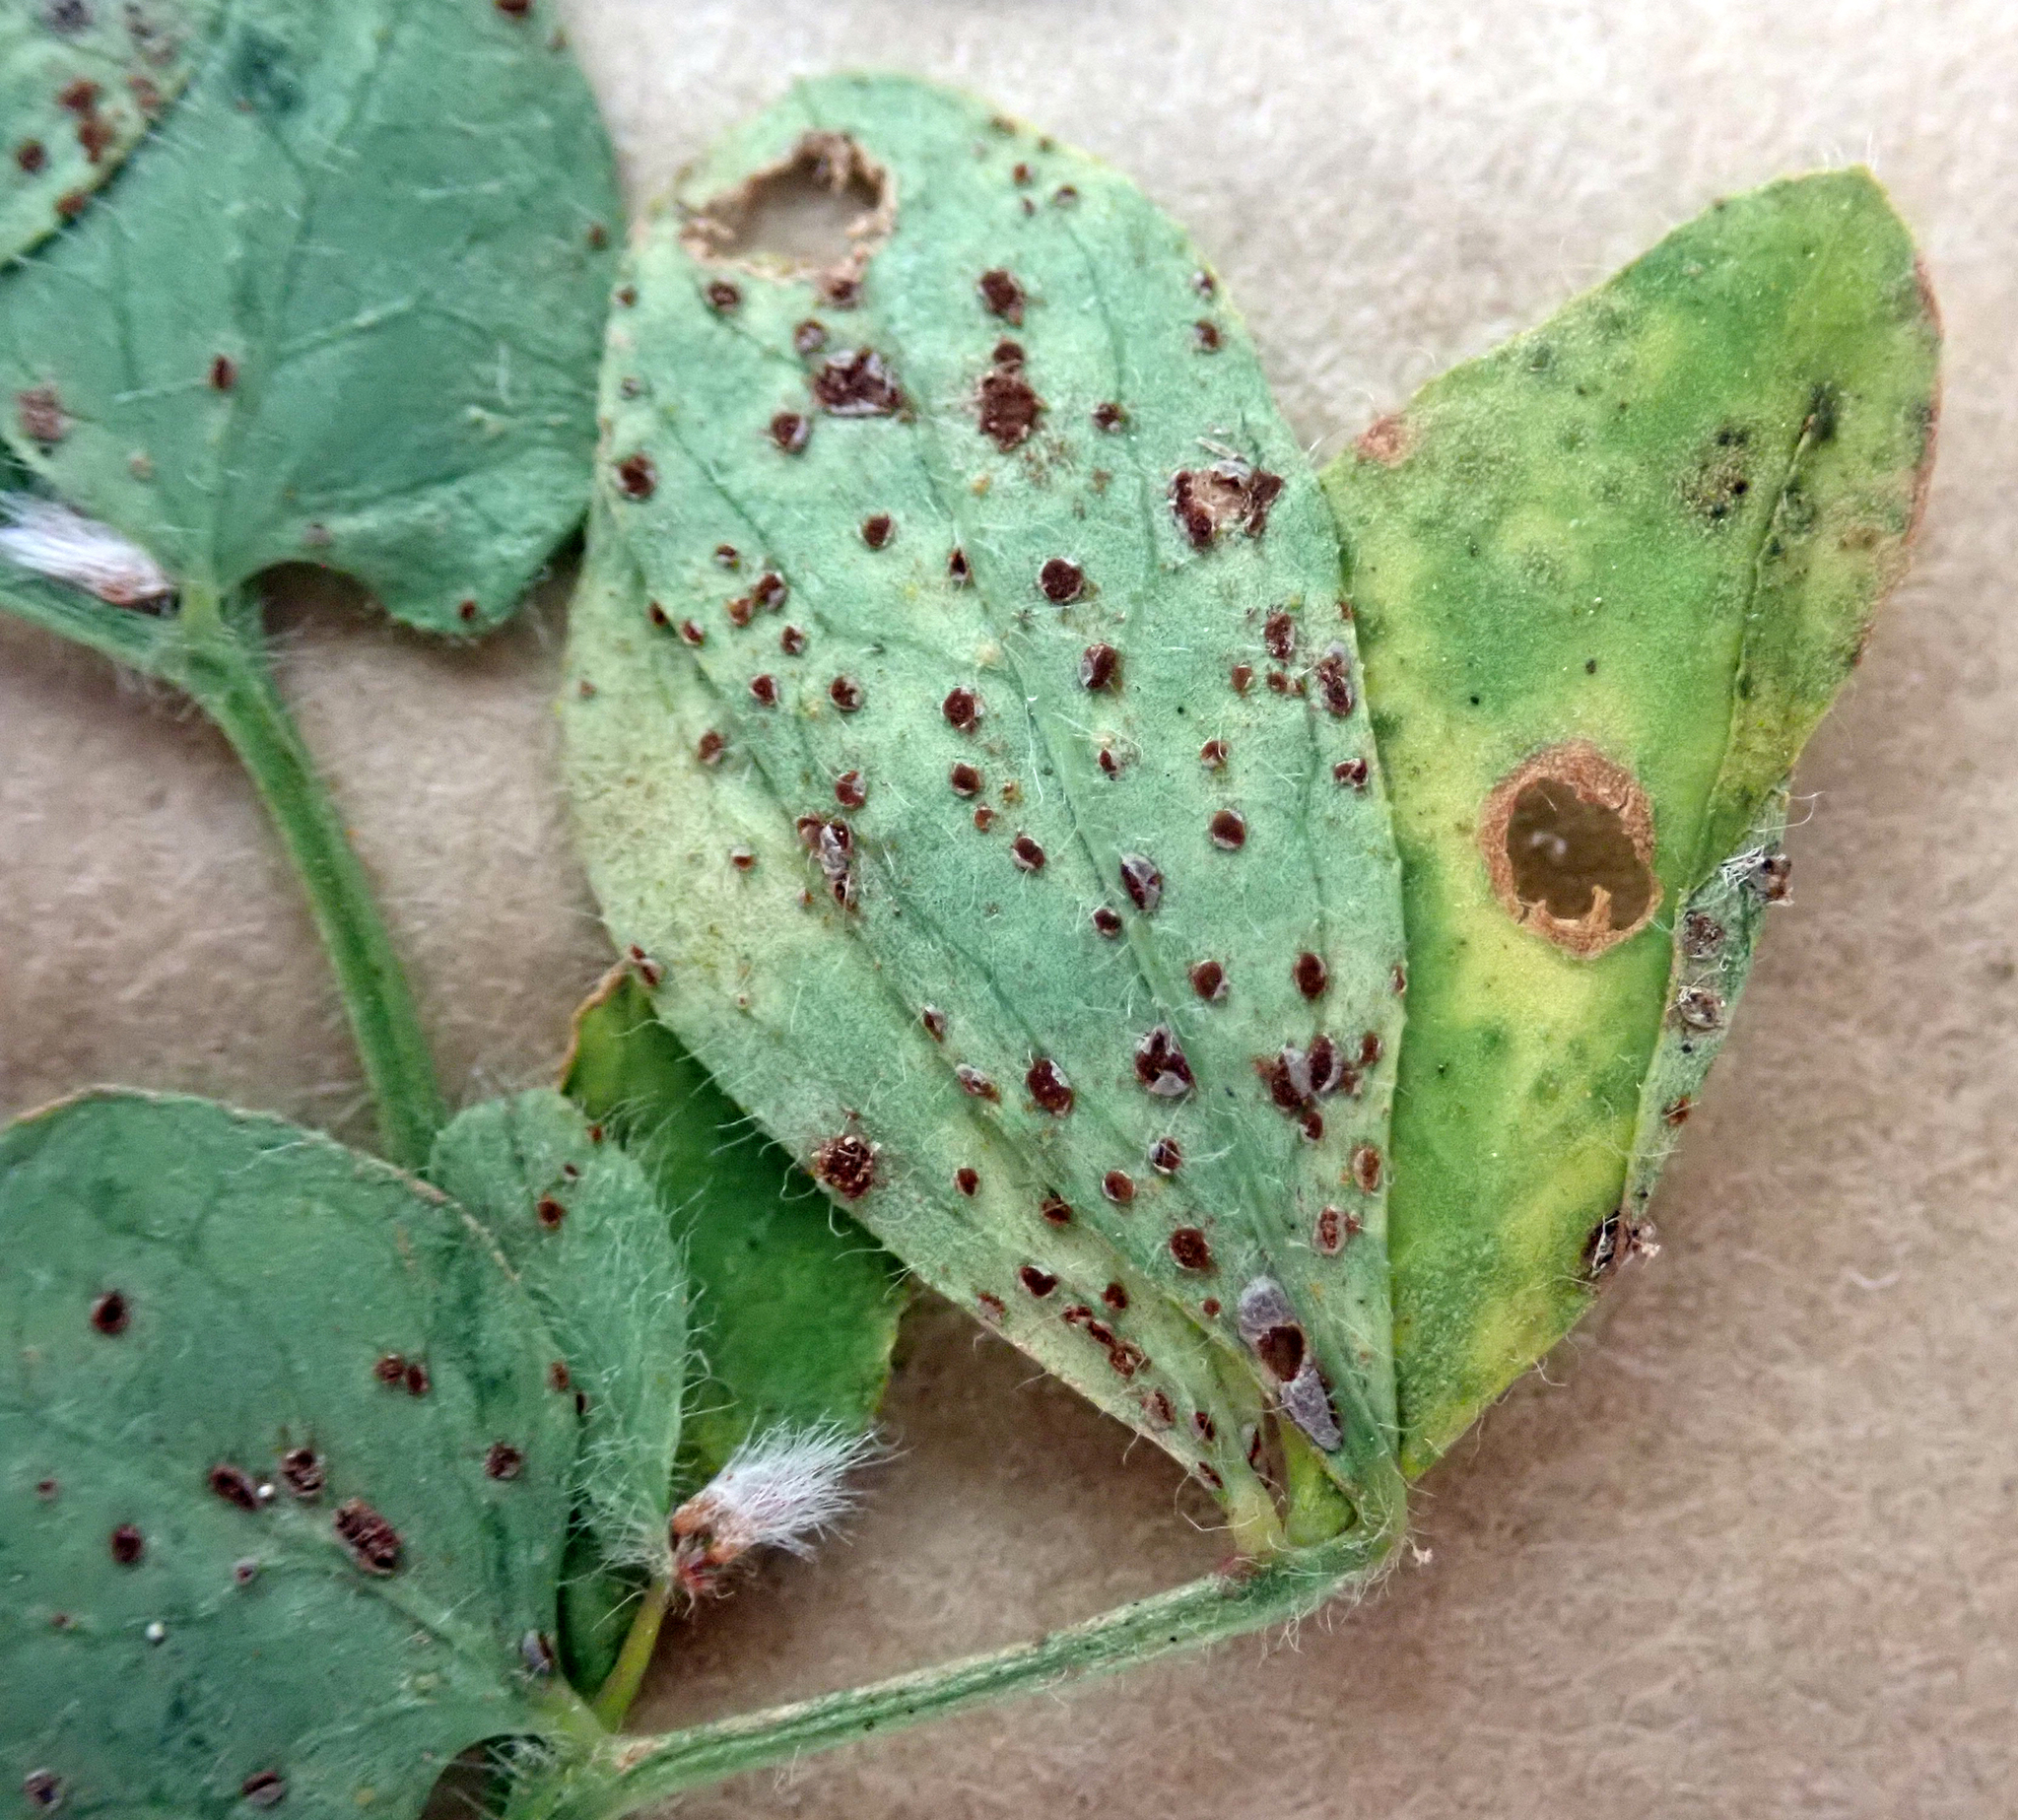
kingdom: Fungi
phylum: Basidiomycota
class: Pucciniomycetes
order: Pucciniales
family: Pucciniaceae
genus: Uromyces
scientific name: Uromyces anthyllidis
